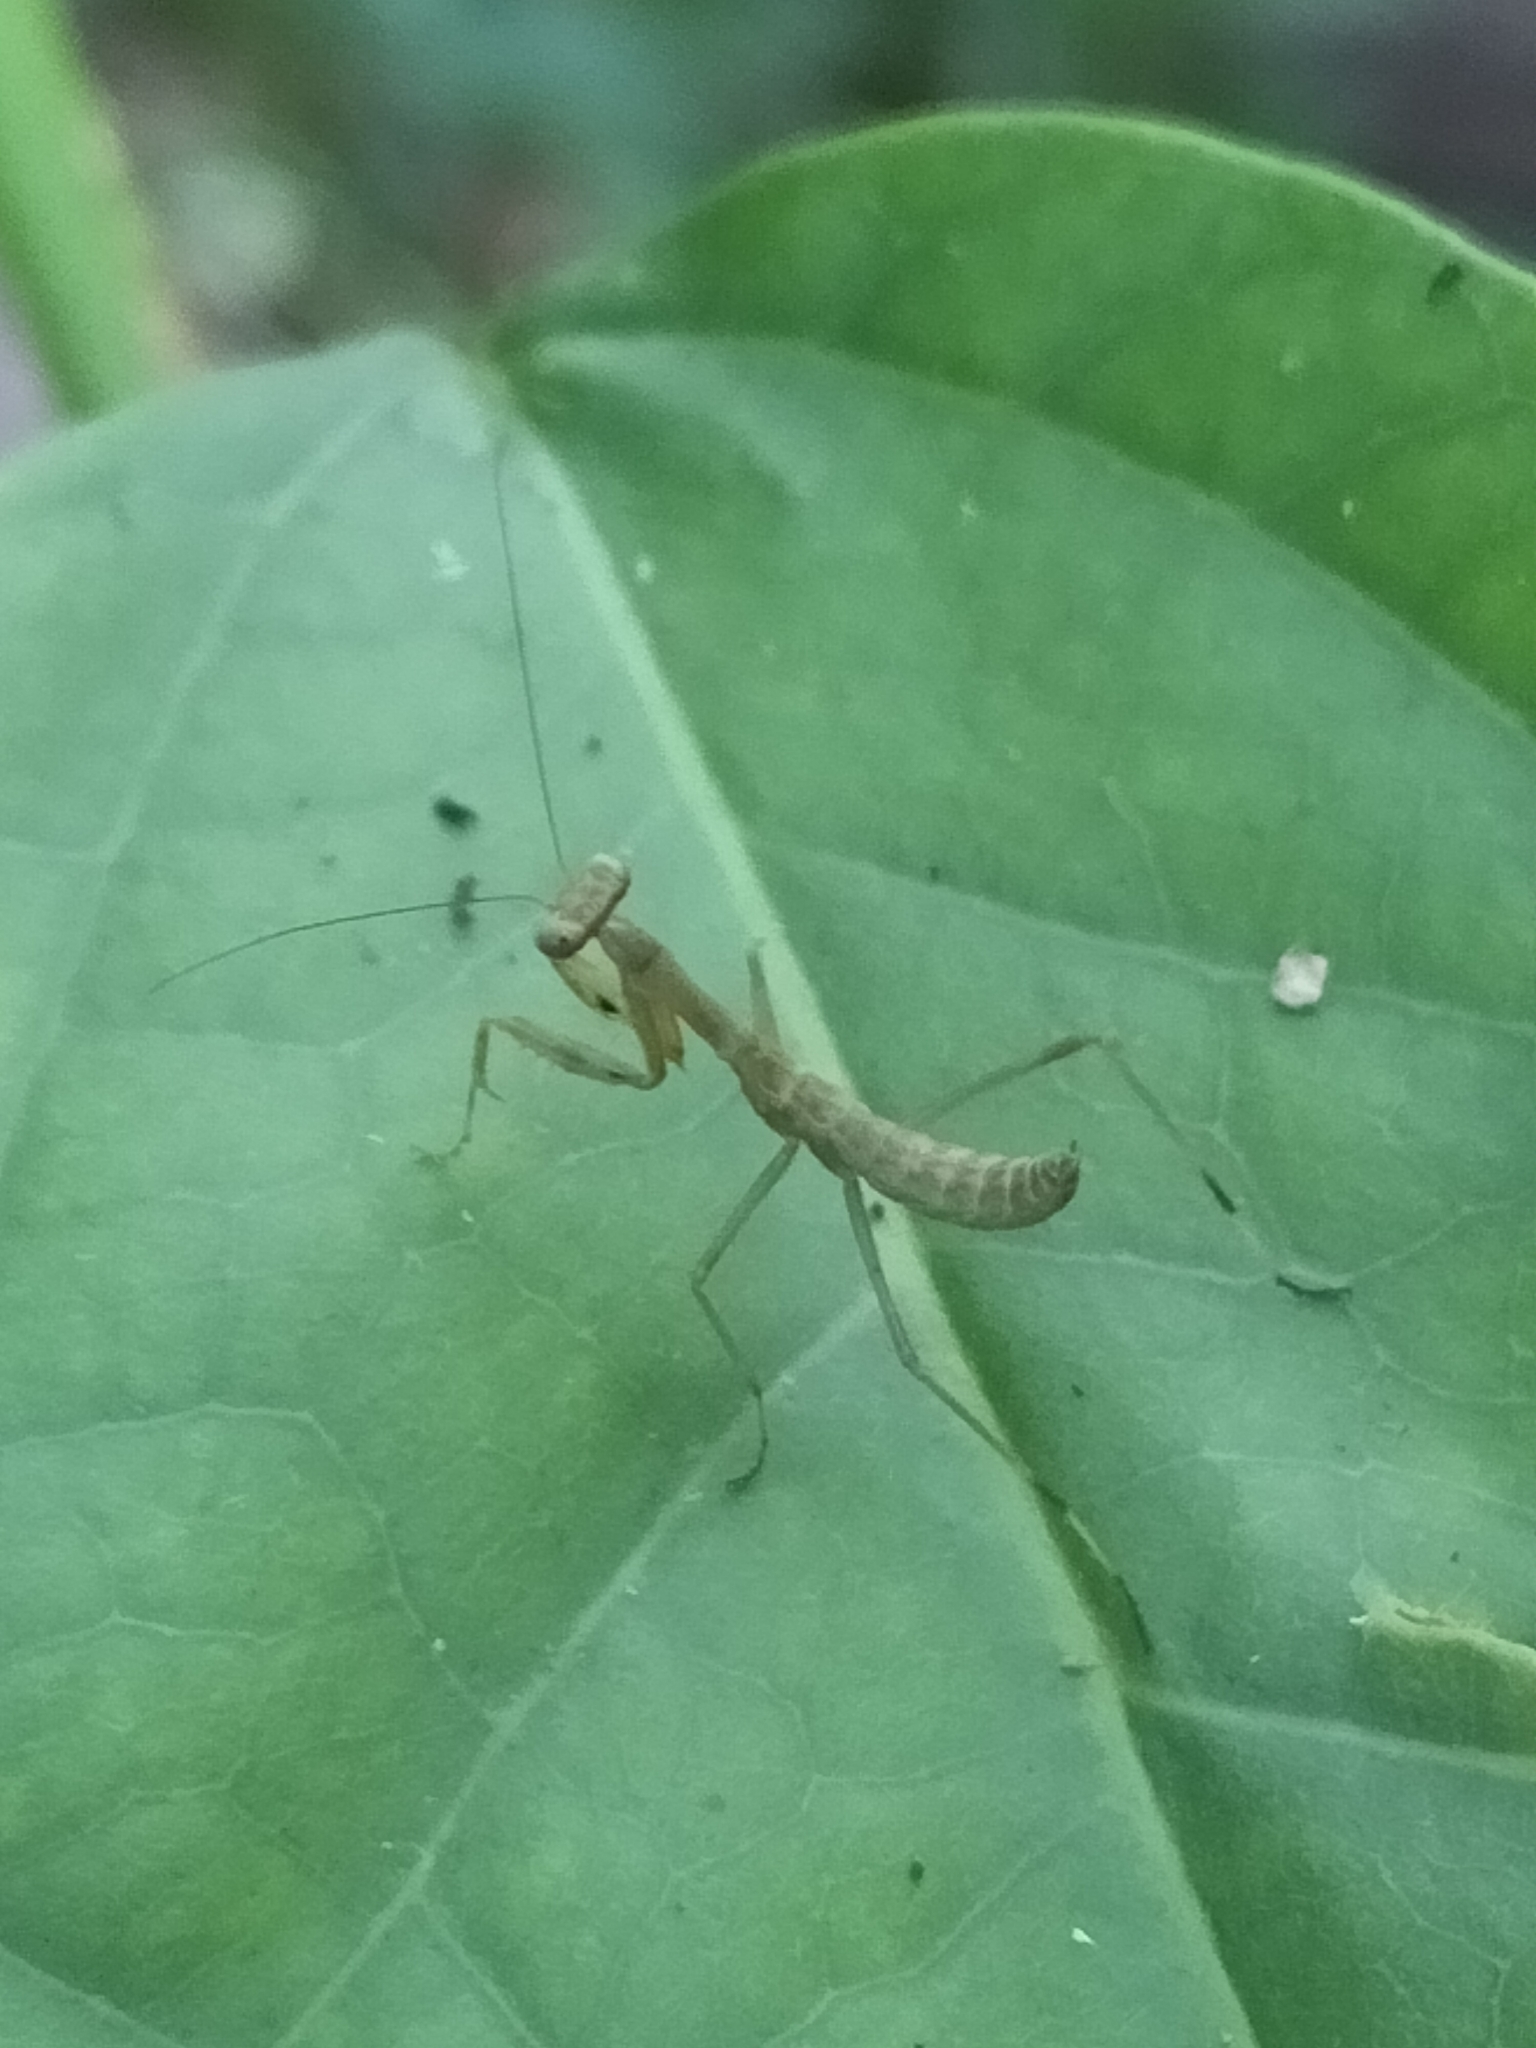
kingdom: Animalia
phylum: Arthropoda
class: Insecta
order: Mantodea
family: Mantidae
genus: Hierodula
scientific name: Hierodula majuscula
